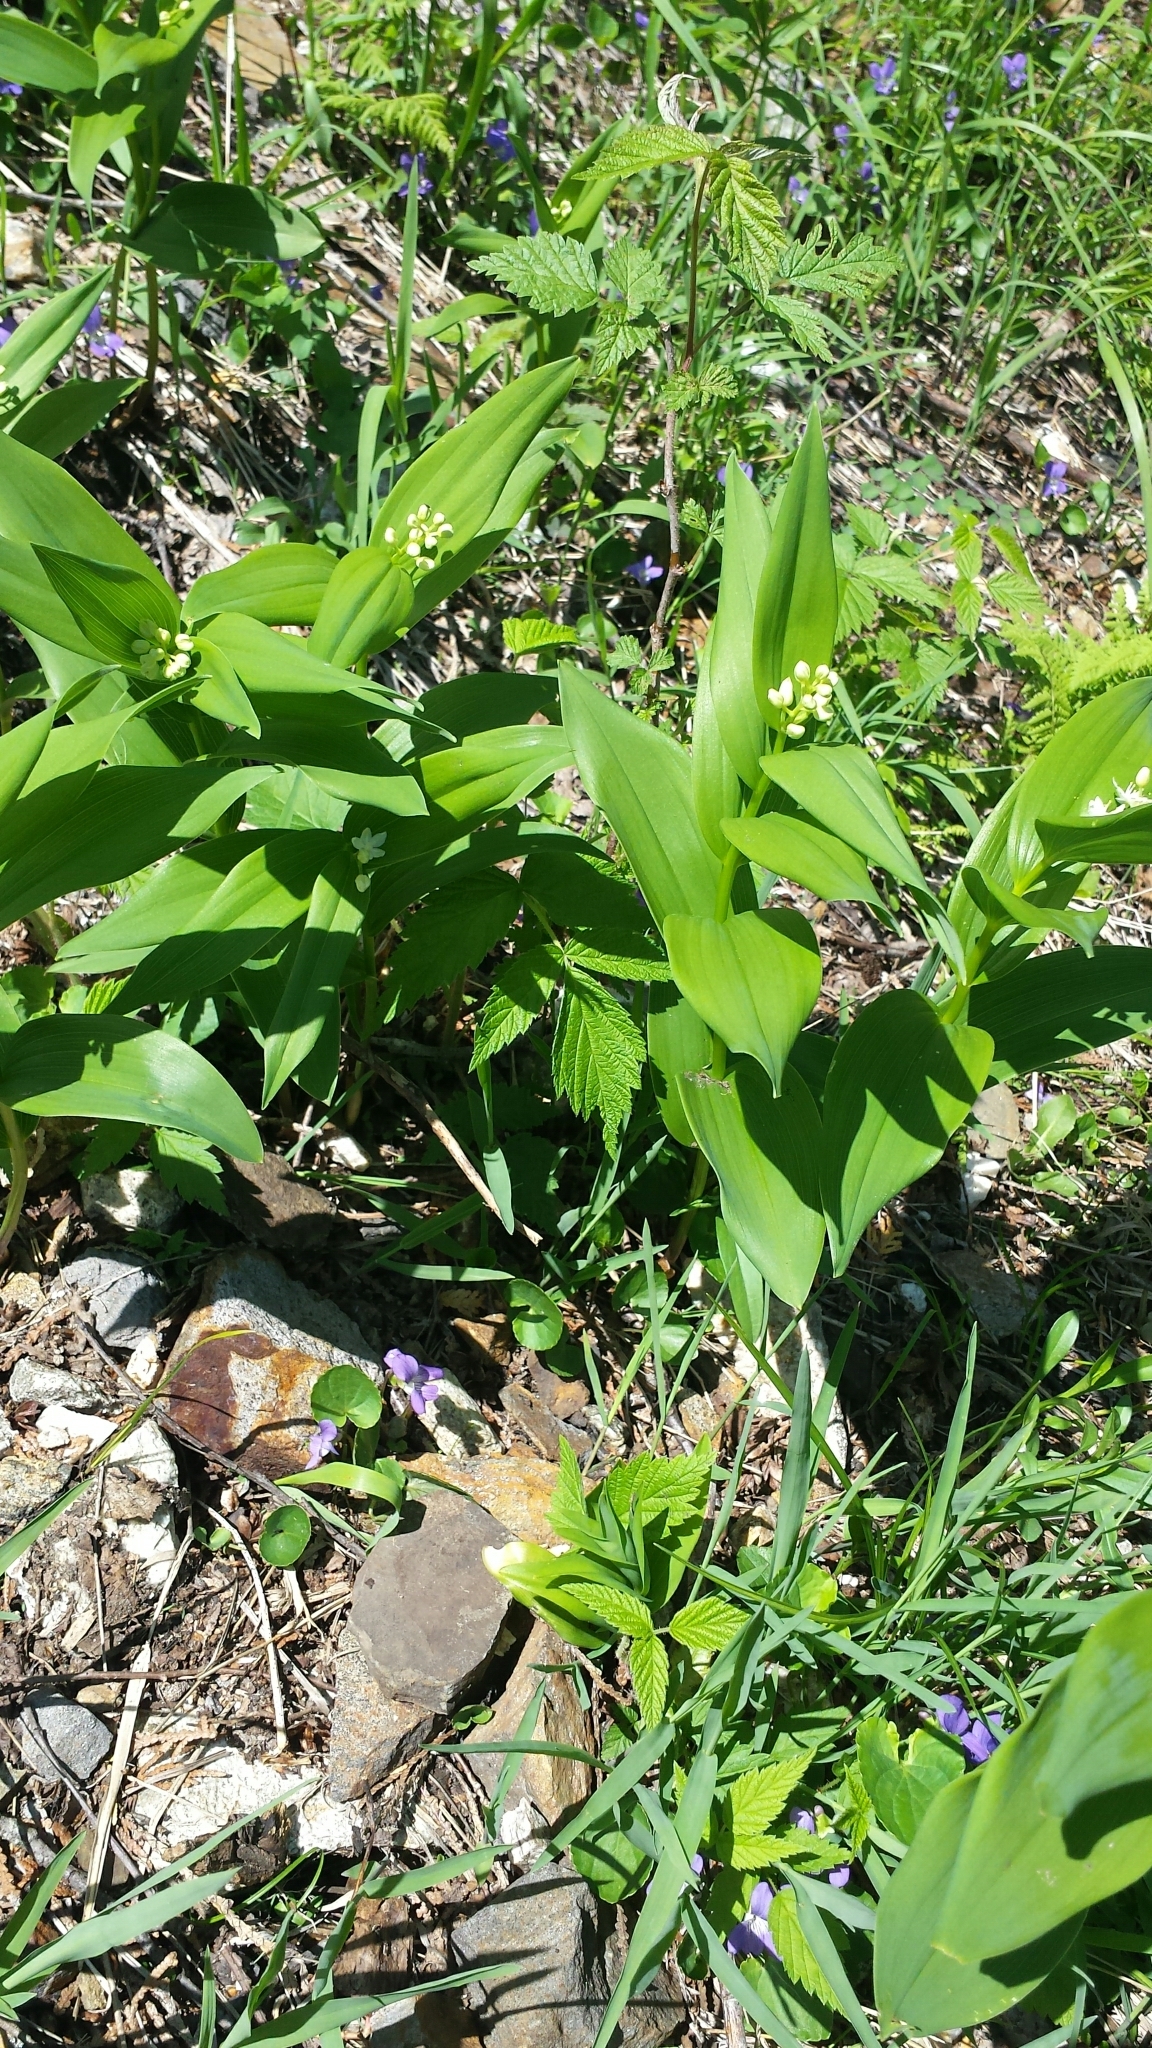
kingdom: Plantae
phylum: Tracheophyta
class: Liliopsida
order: Asparagales
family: Asparagaceae
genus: Maianthemum
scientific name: Maianthemum stellatum
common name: Little false solomon's seal
